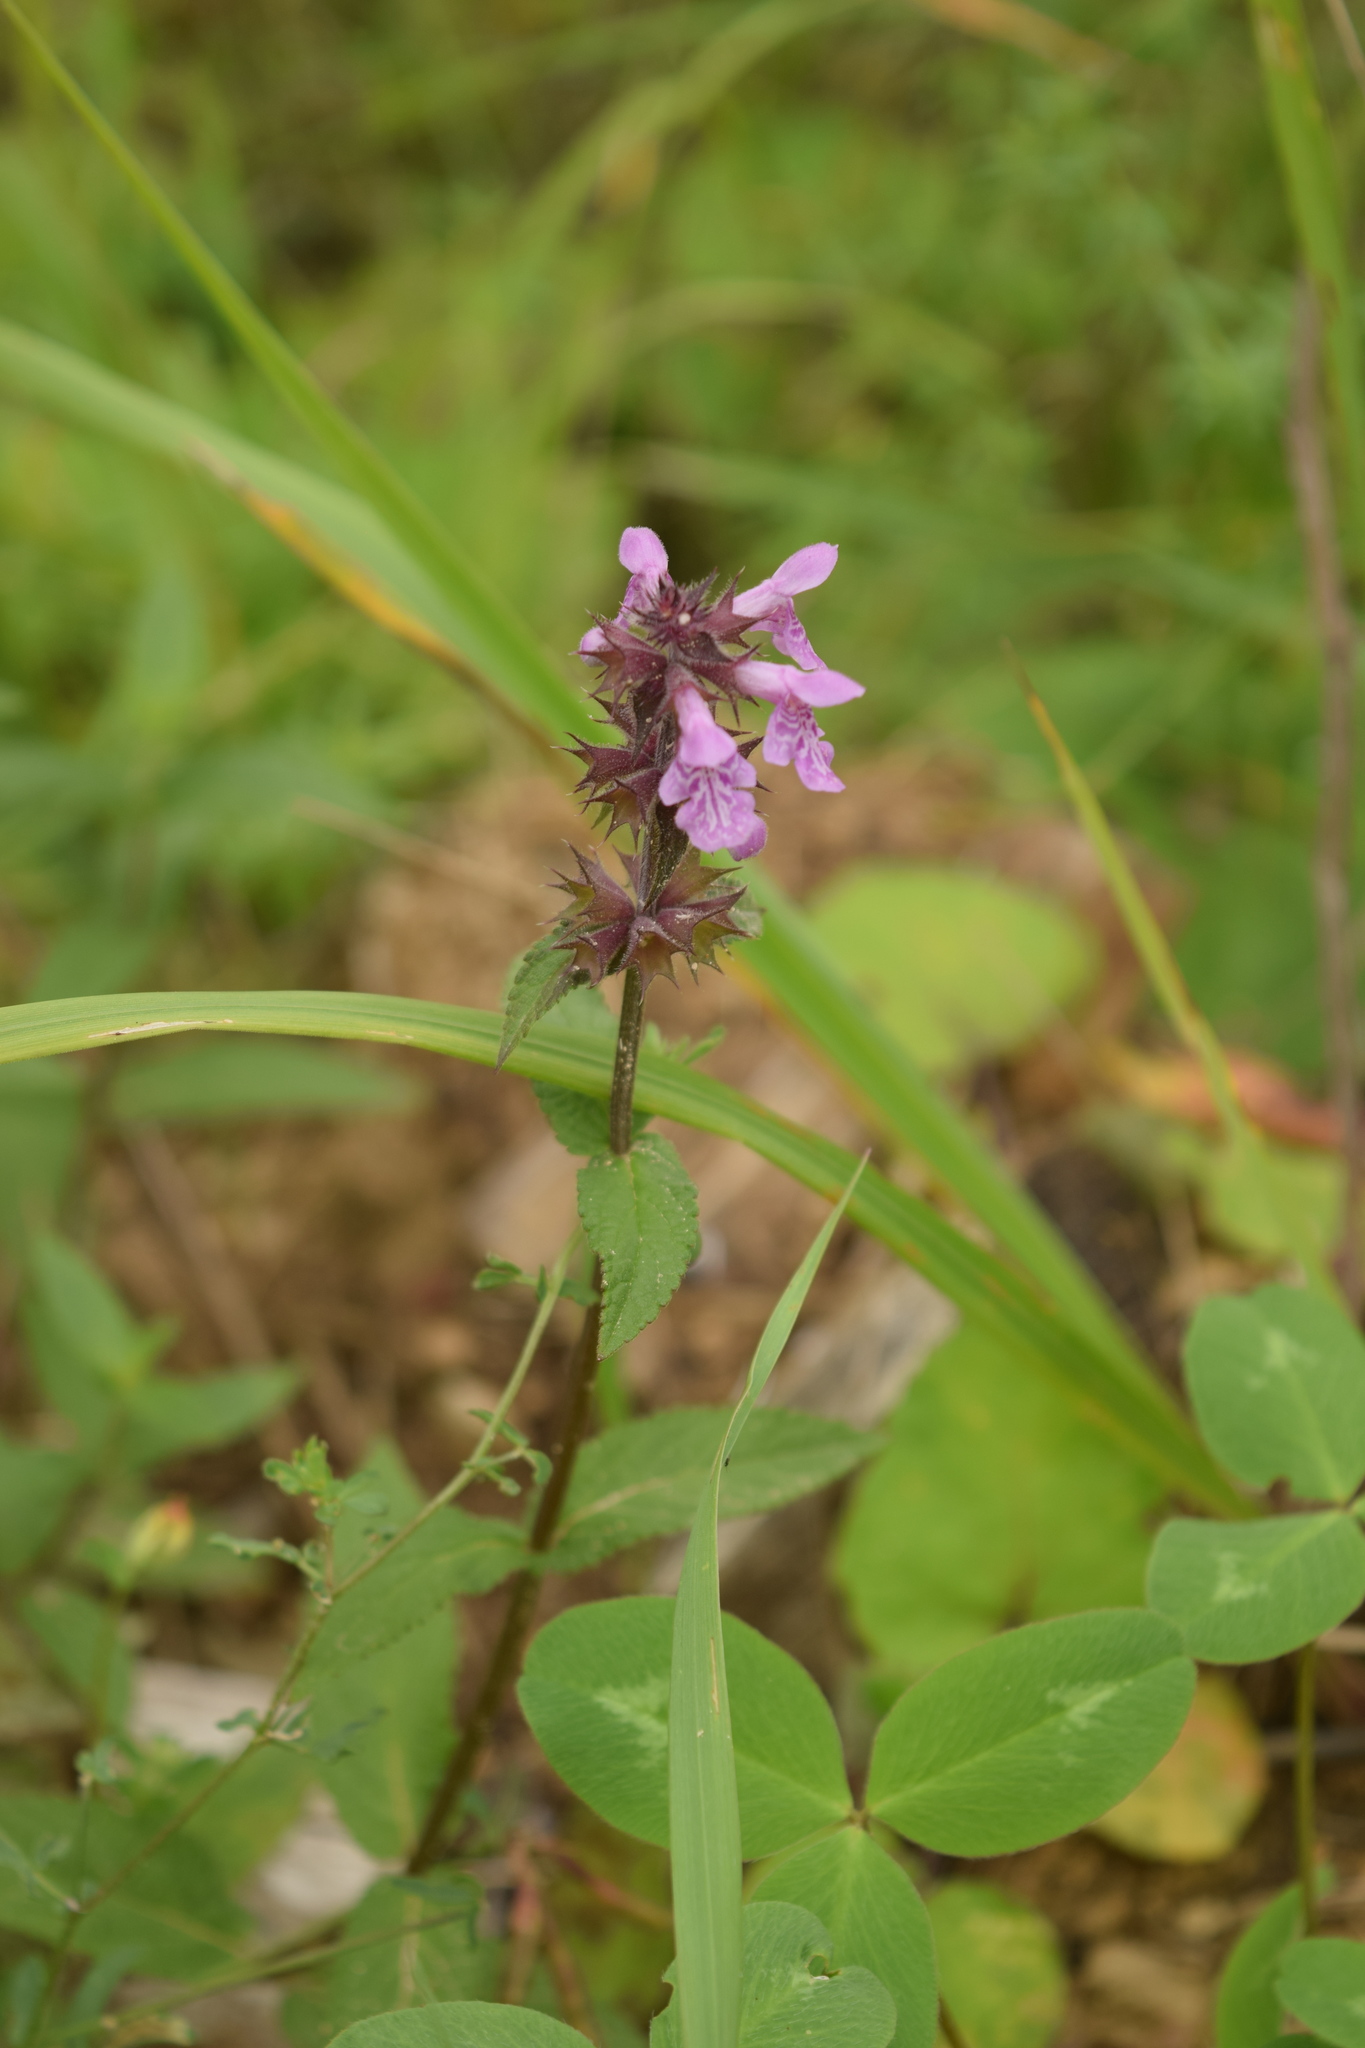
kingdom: Plantae
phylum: Tracheophyta
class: Magnoliopsida
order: Lamiales
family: Lamiaceae
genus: Stachys
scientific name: Stachys palustris
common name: Marsh woundwort
